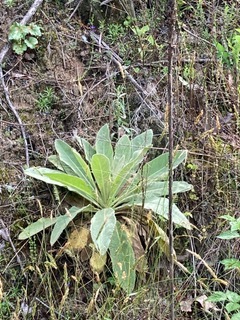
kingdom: Plantae
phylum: Tracheophyta
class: Magnoliopsida
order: Lamiales
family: Scrophulariaceae
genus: Verbascum
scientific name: Verbascum thapsus
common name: Common mullein
